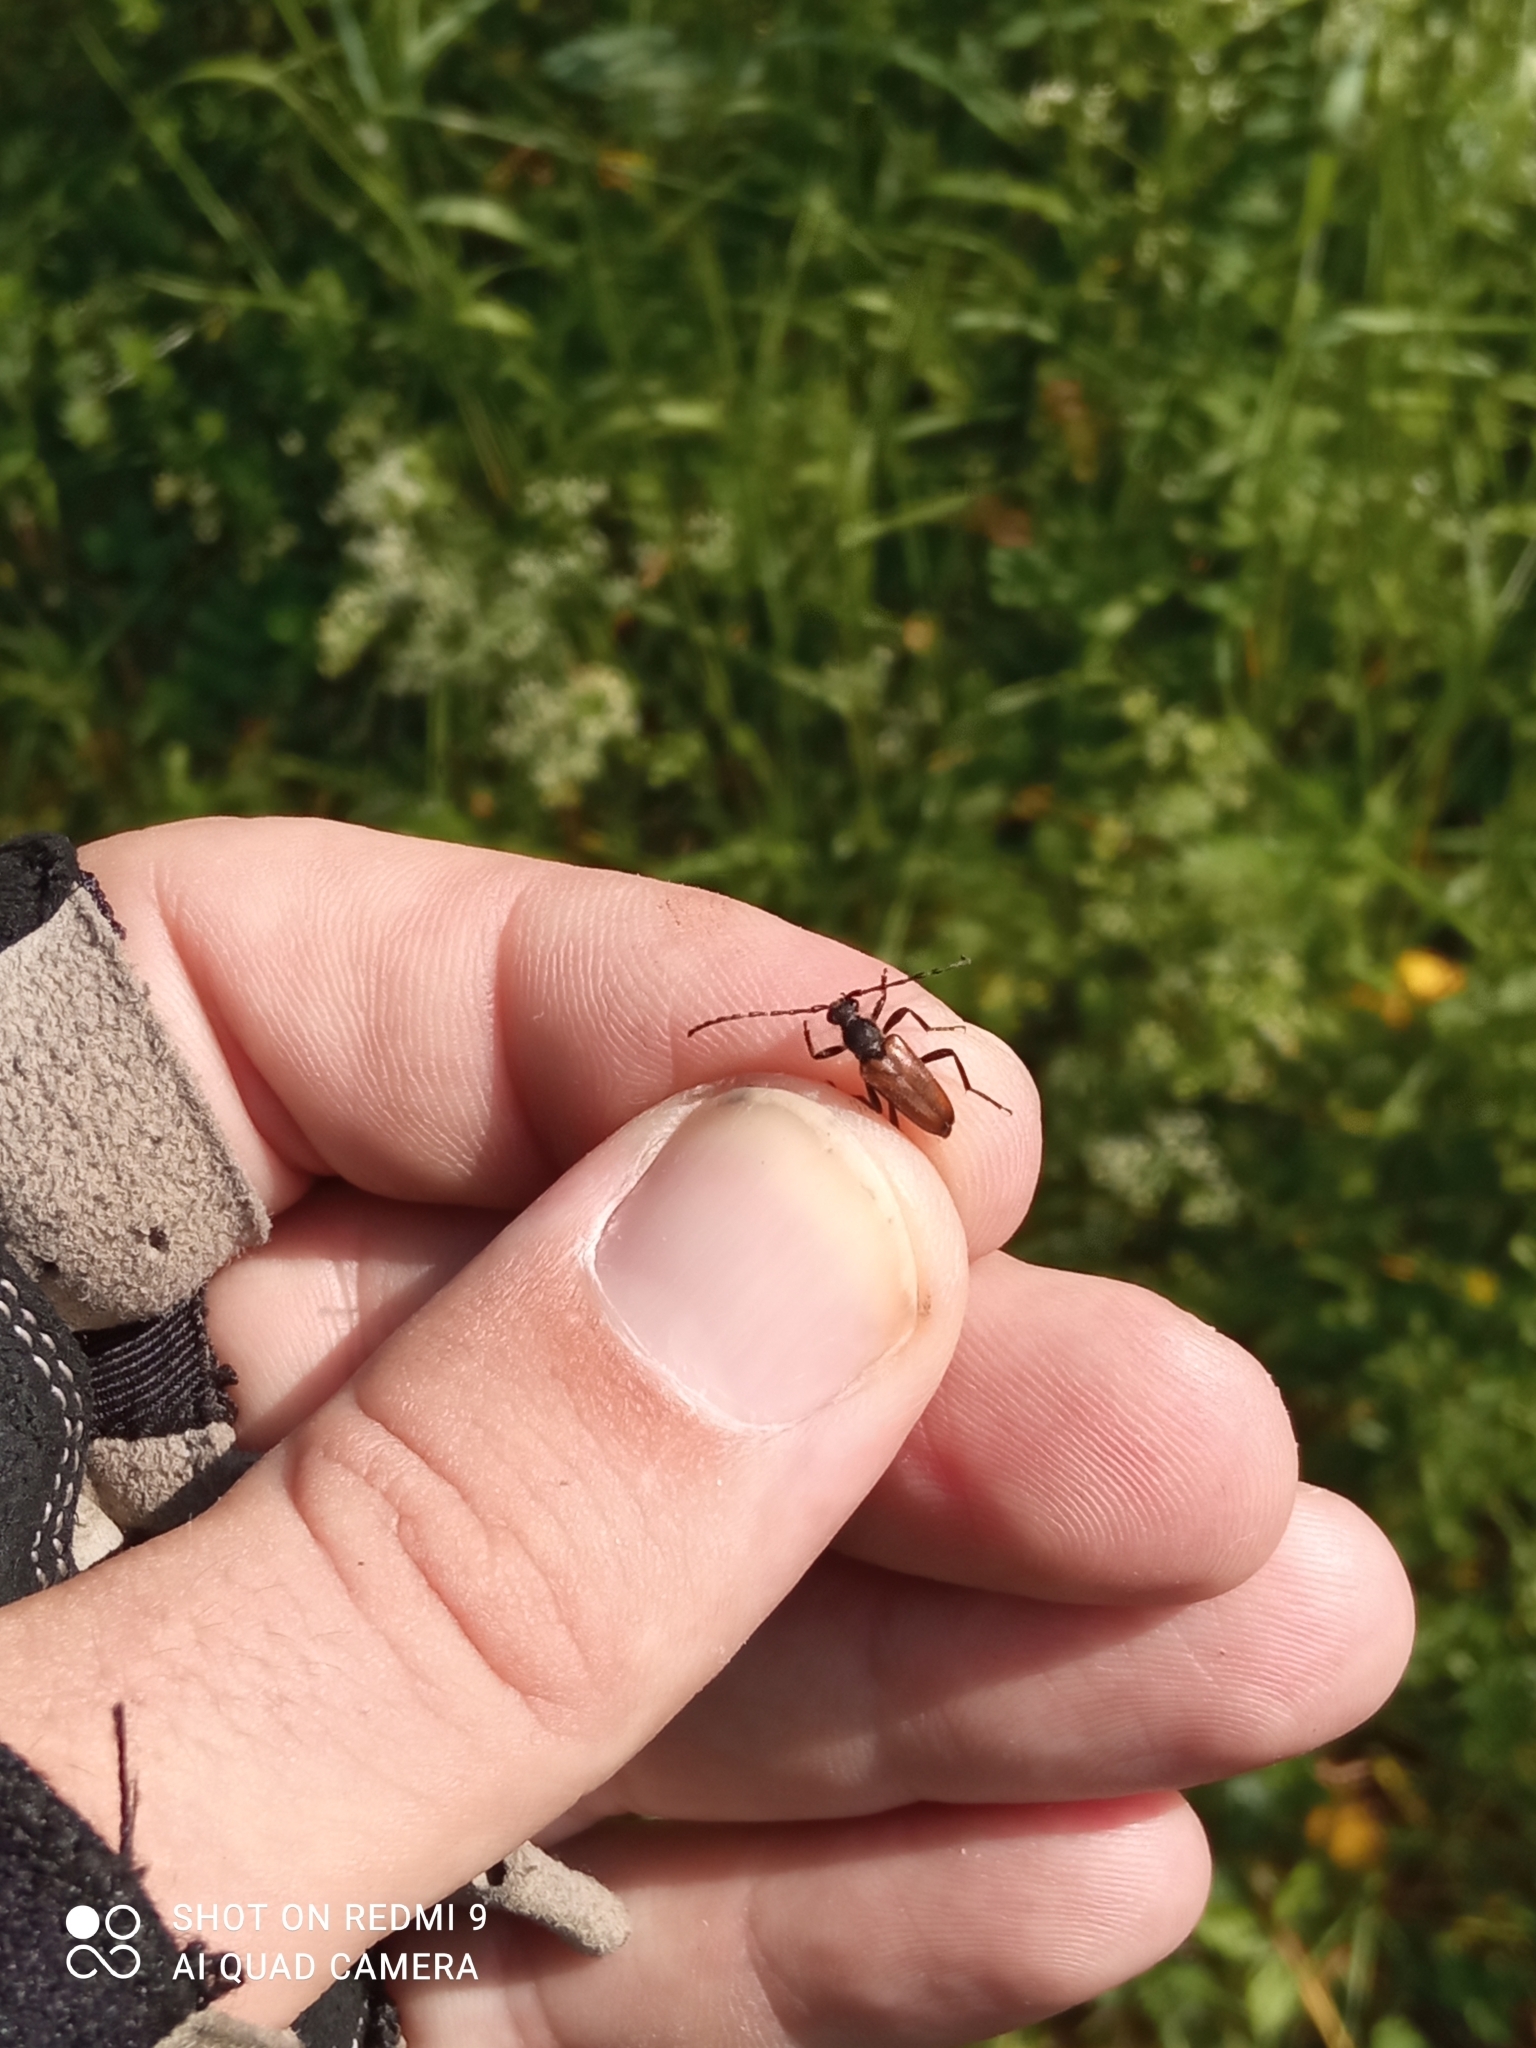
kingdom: Animalia
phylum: Arthropoda
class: Insecta
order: Coleoptera
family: Cerambycidae
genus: Paracorymbia
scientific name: Paracorymbia maculicornis
